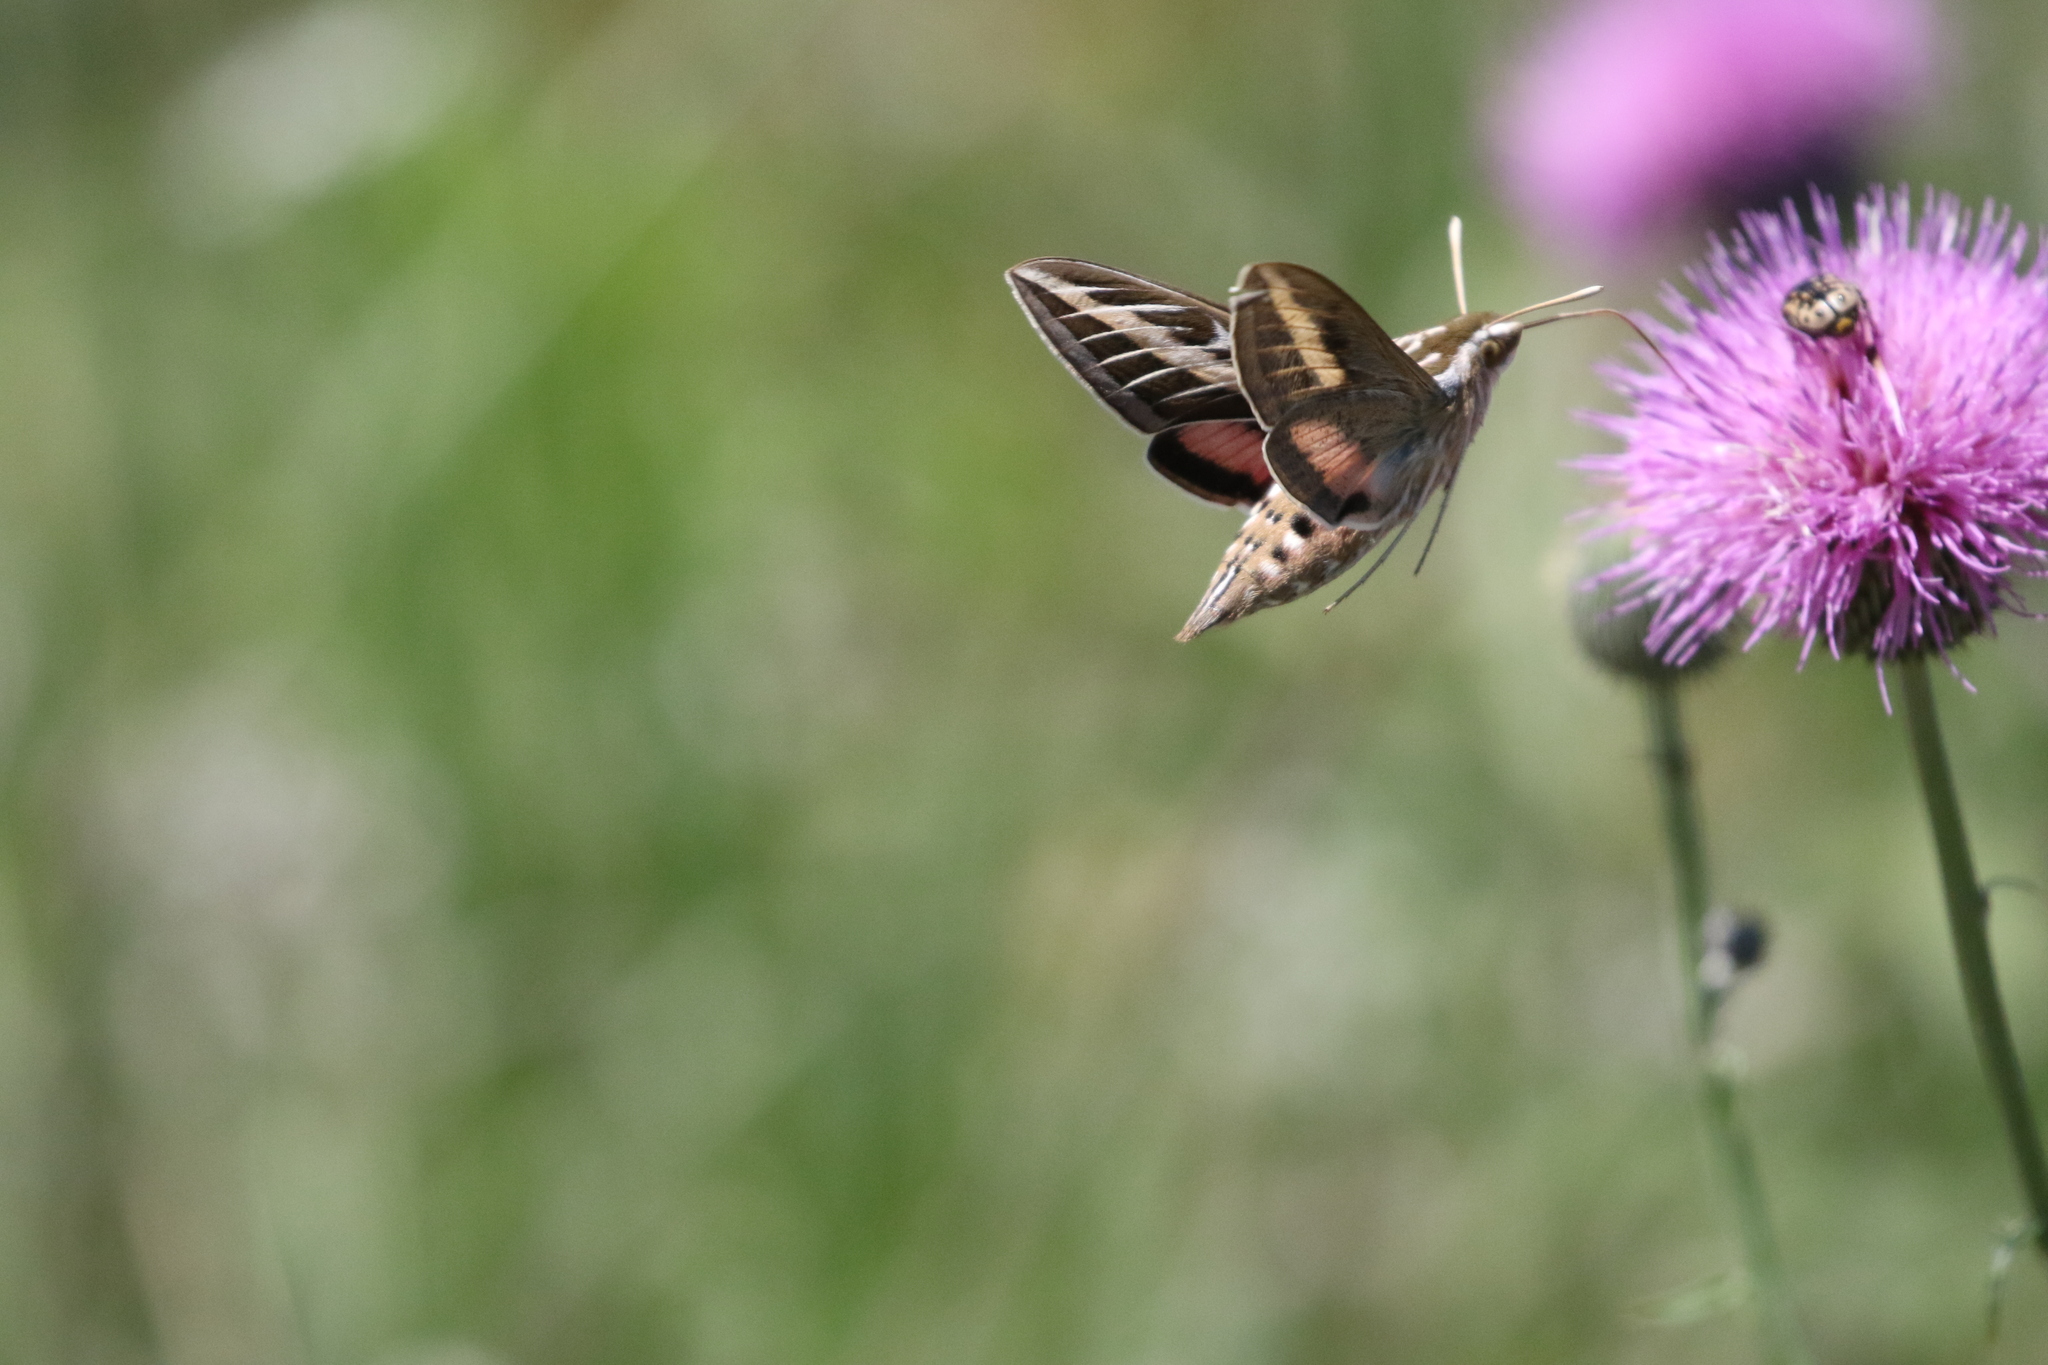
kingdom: Animalia
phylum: Arthropoda
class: Insecta
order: Lepidoptera
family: Sphingidae
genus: Hyles
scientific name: Hyles lineata
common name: White-lined sphinx
